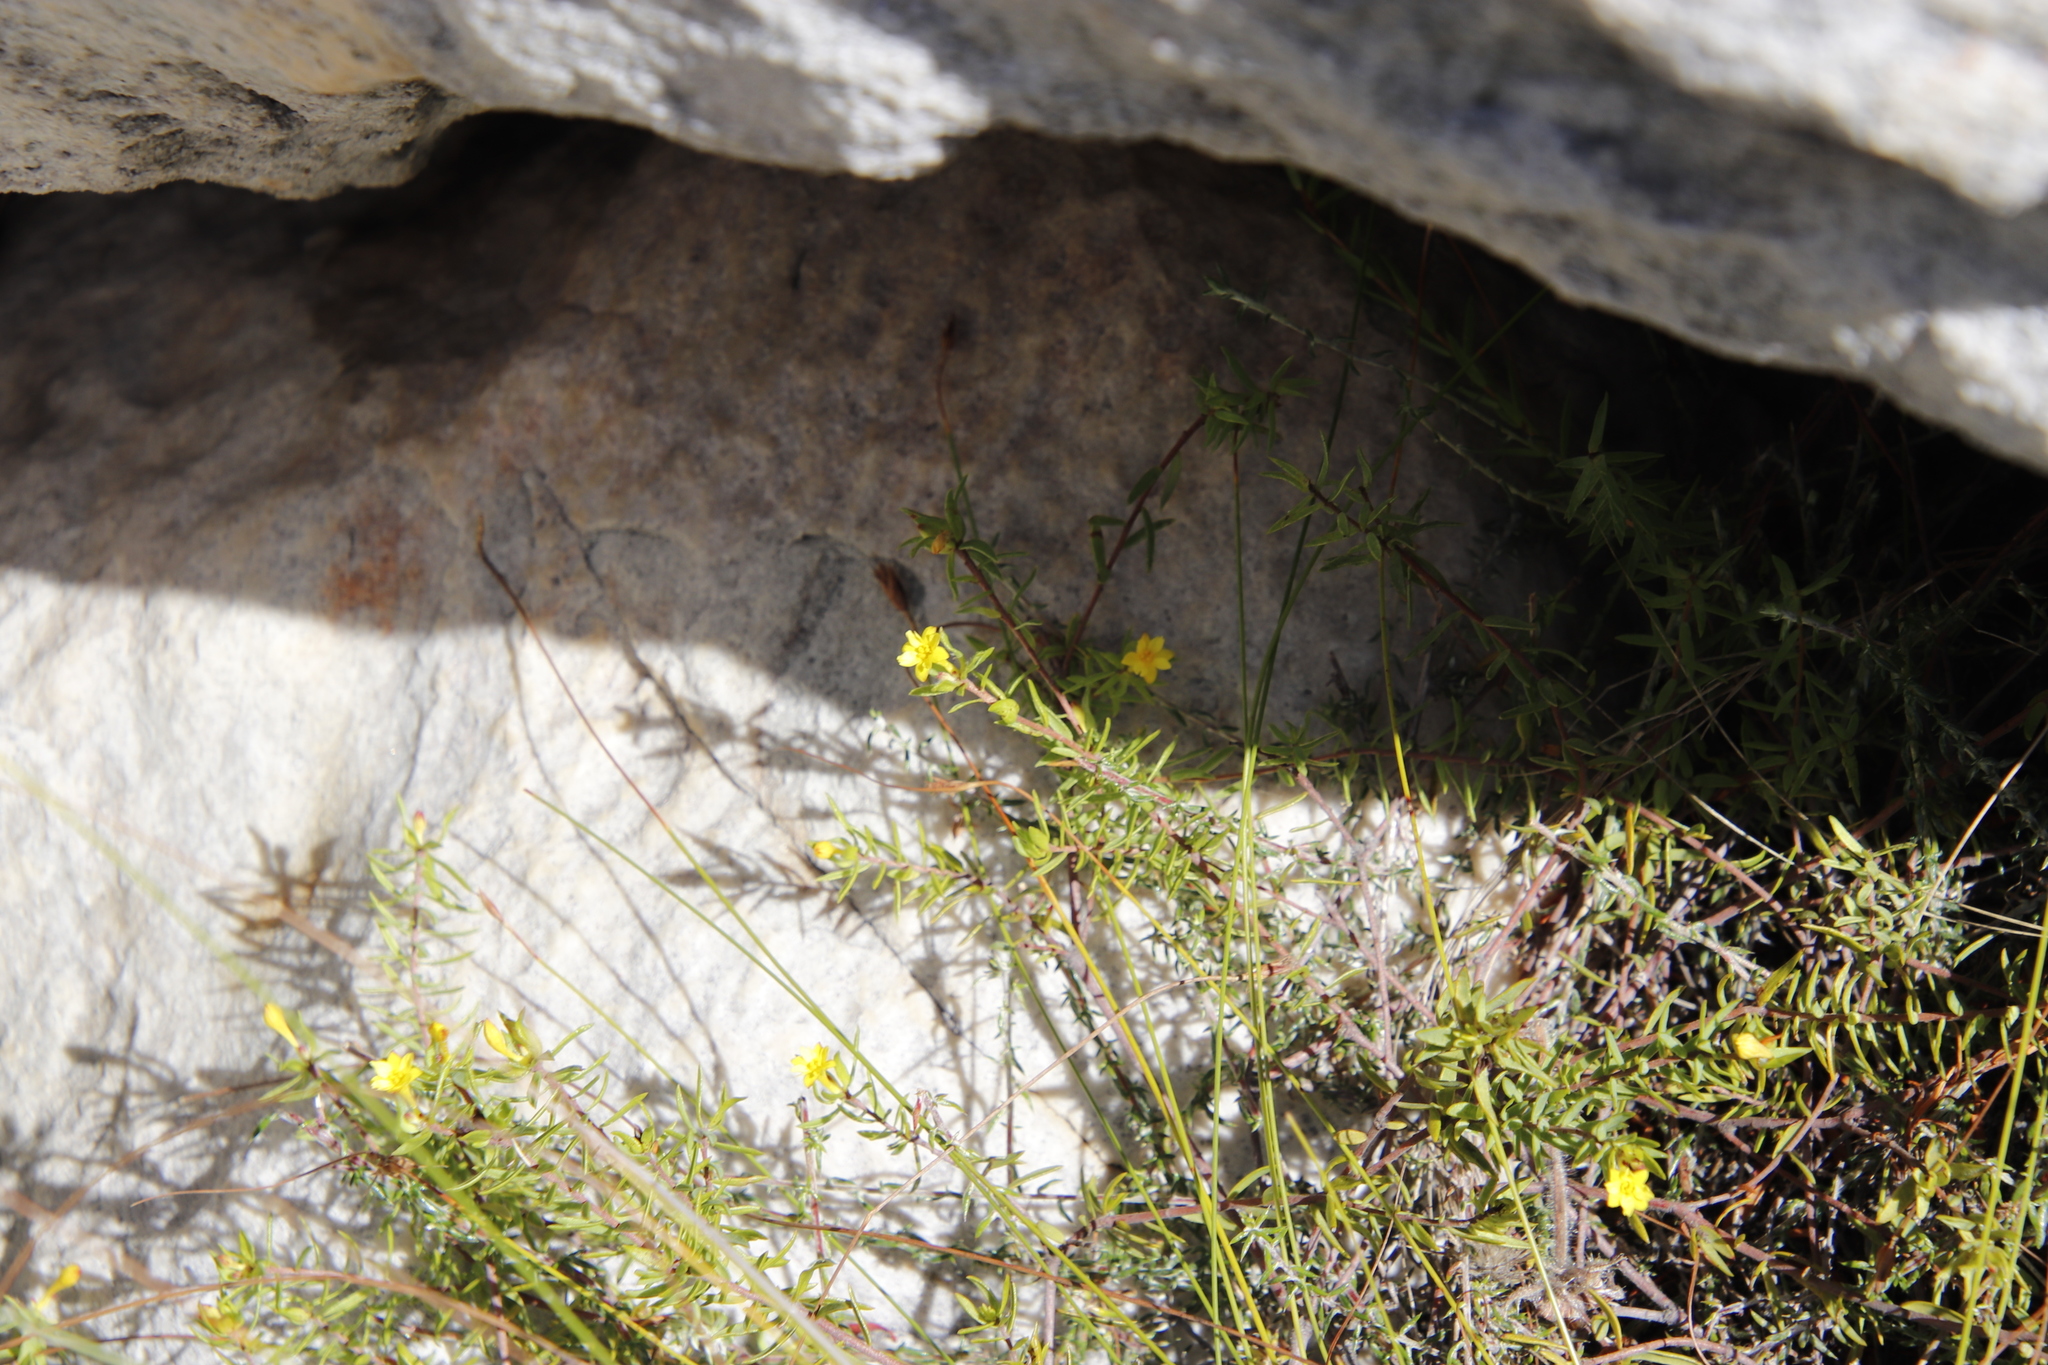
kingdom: Plantae
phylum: Tracheophyta
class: Magnoliopsida
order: Malvales
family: Thymelaeaceae
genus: Gnidia
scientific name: Gnidia juniperifolia
